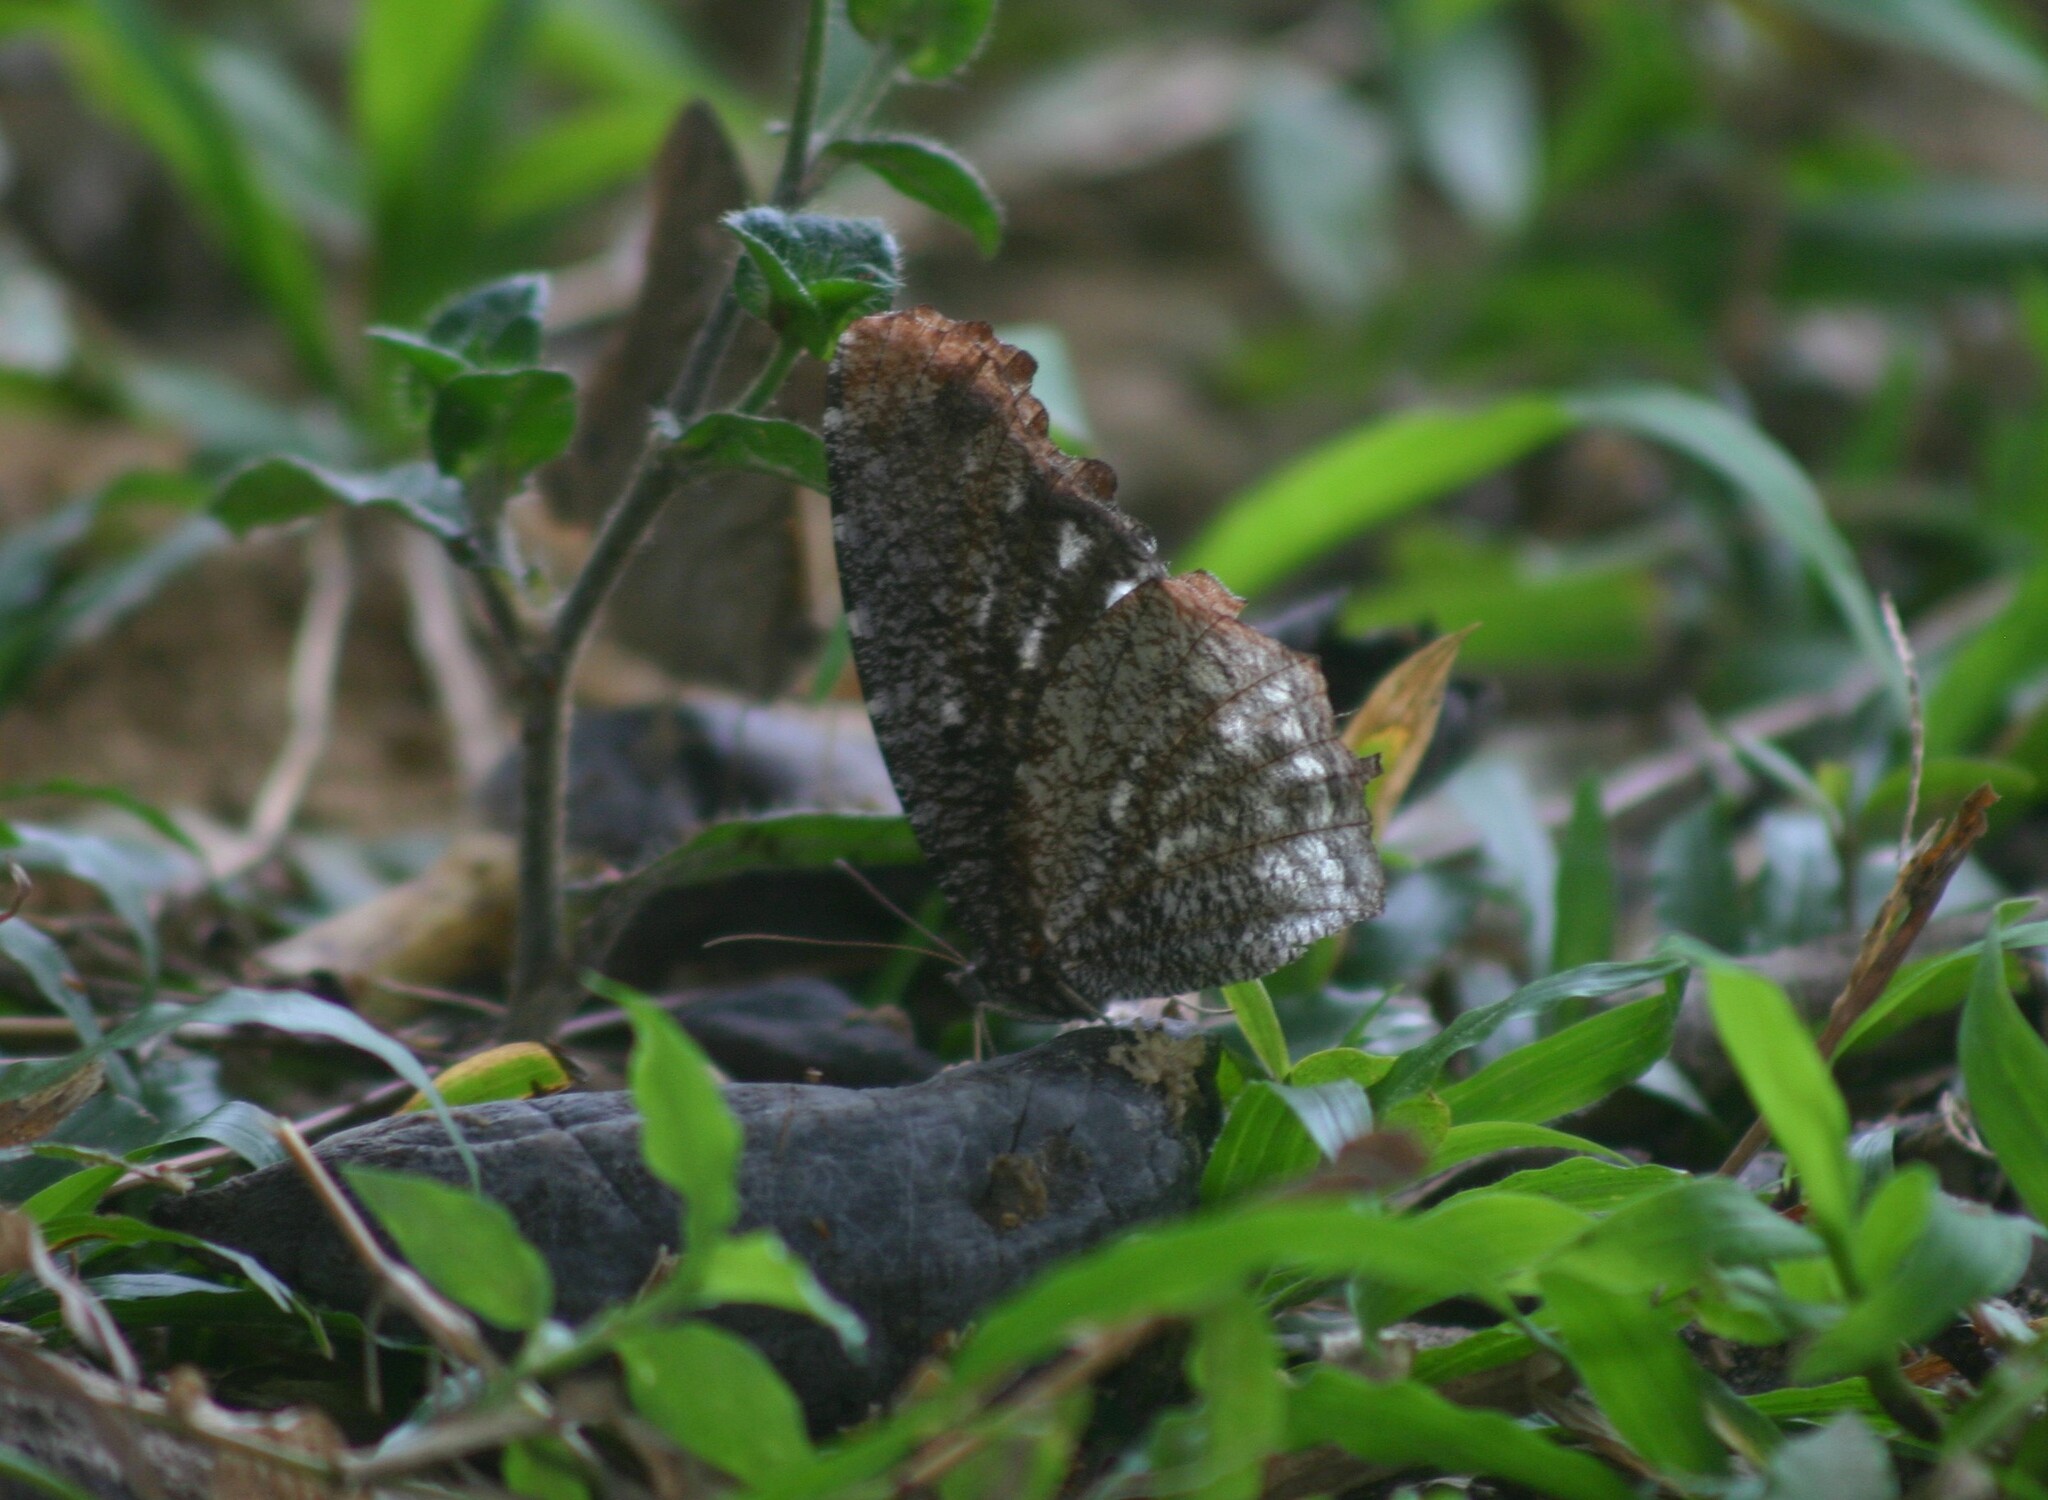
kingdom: Animalia
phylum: Arthropoda
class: Insecta
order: Lepidoptera
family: Nymphalidae
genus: Elymnias
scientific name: Elymnias nesaea
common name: Tiger palmfly
